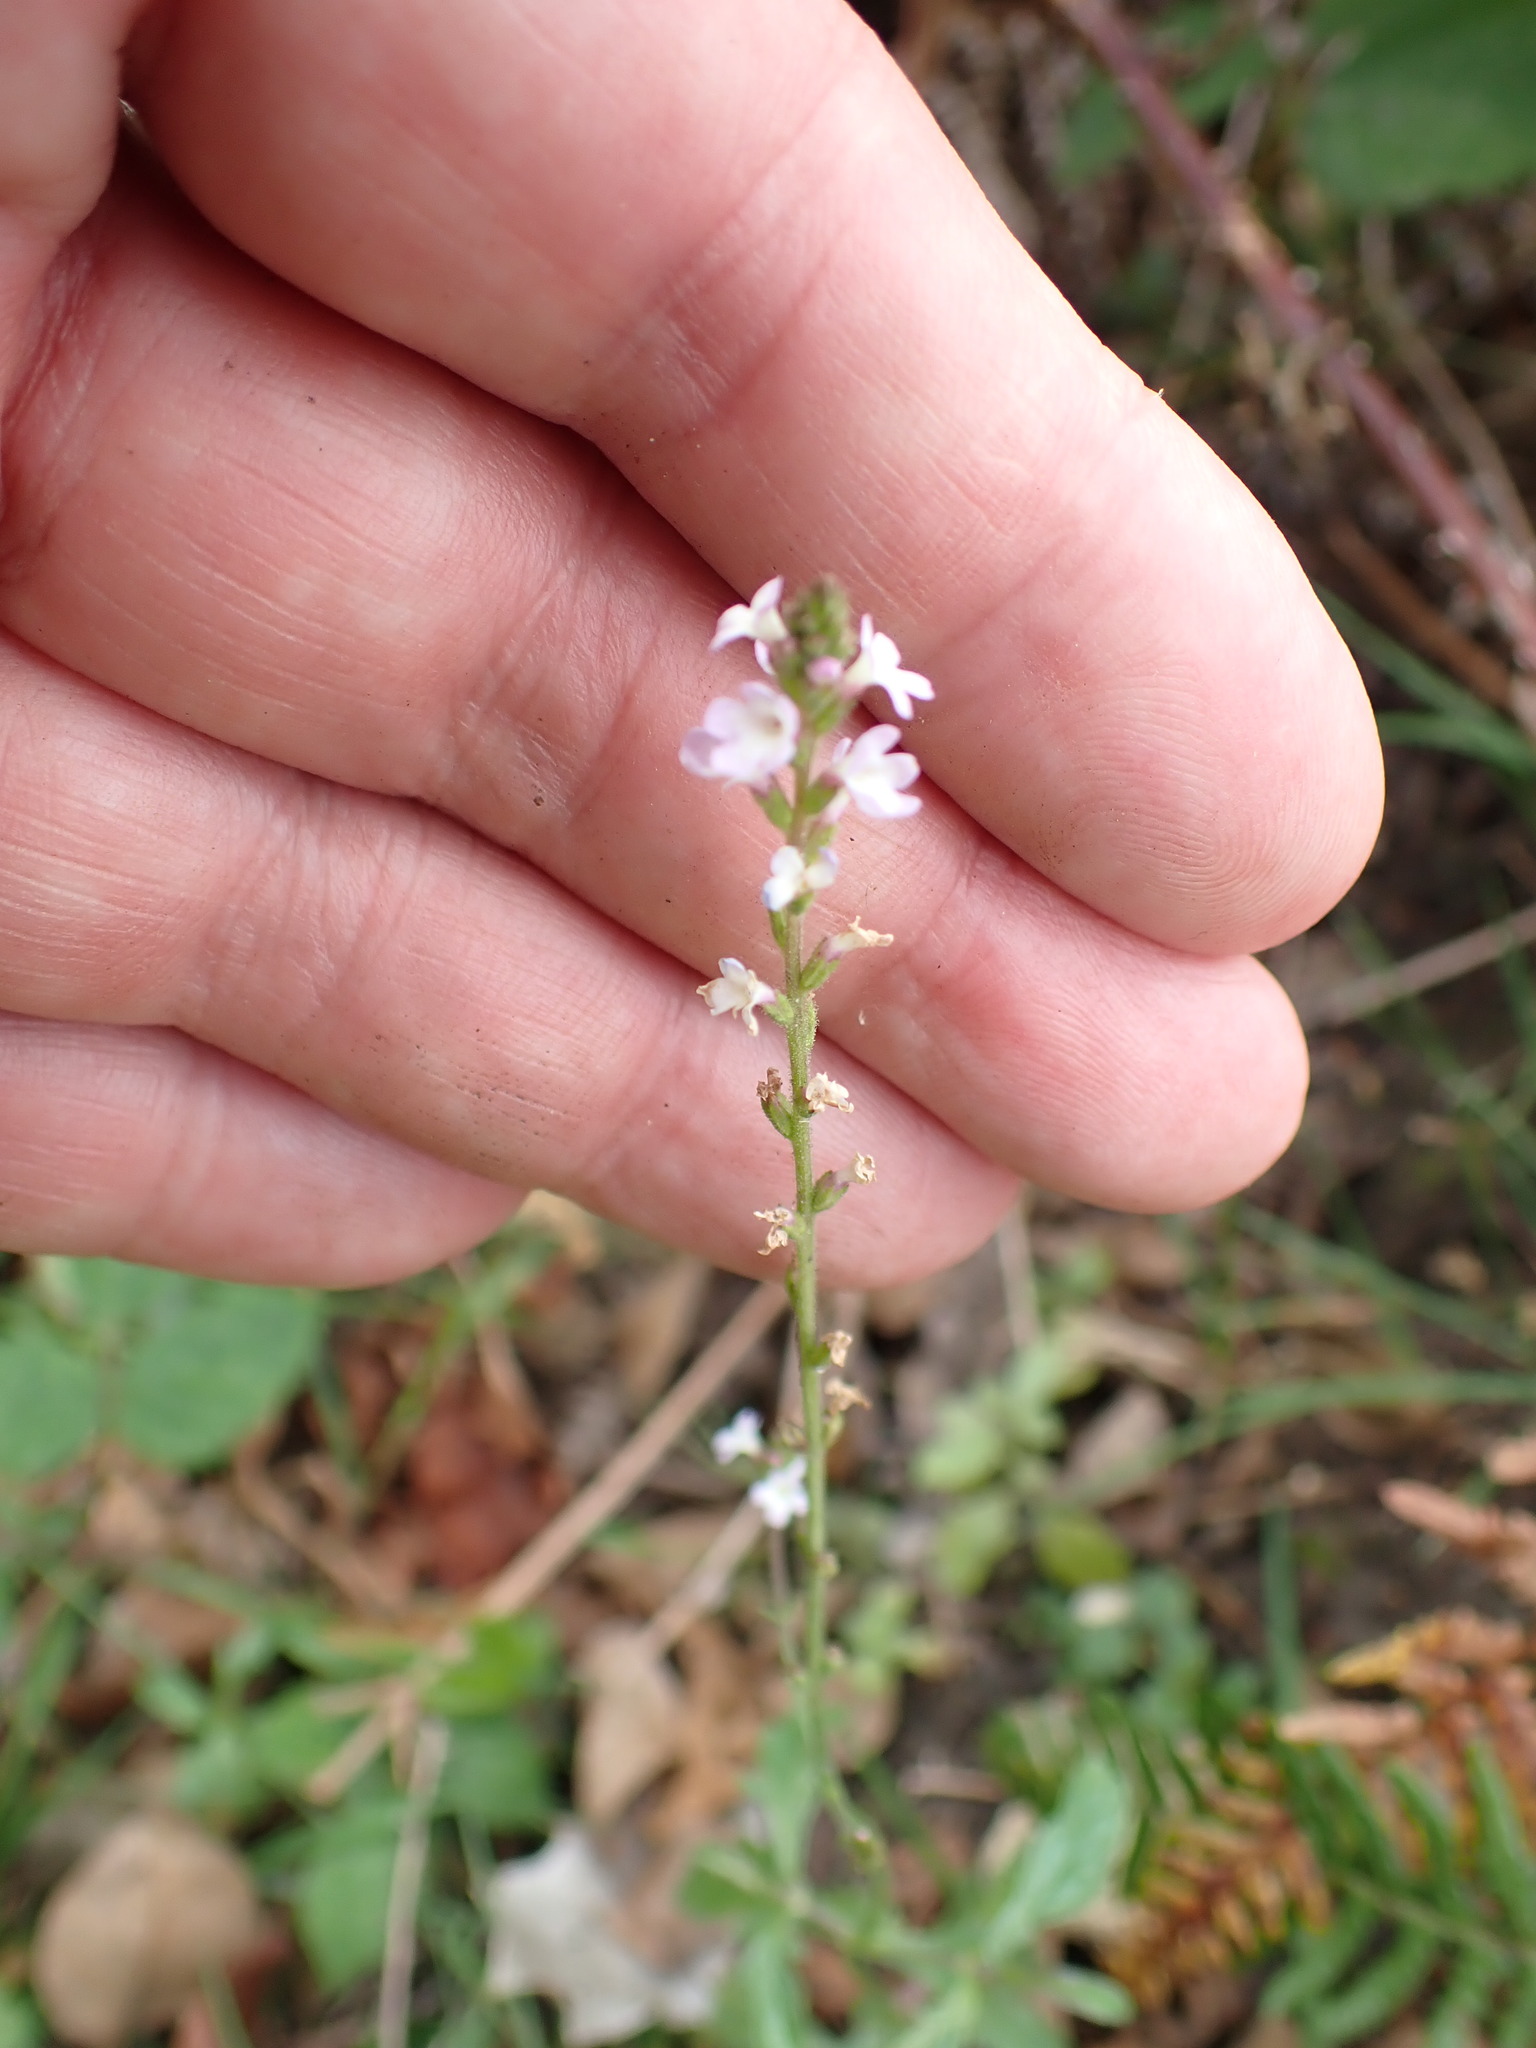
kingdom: Plantae
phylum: Tracheophyta
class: Magnoliopsida
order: Lamiales
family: Verbenaceae
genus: Verbena
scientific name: Verbena officinalis
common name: Vervain
